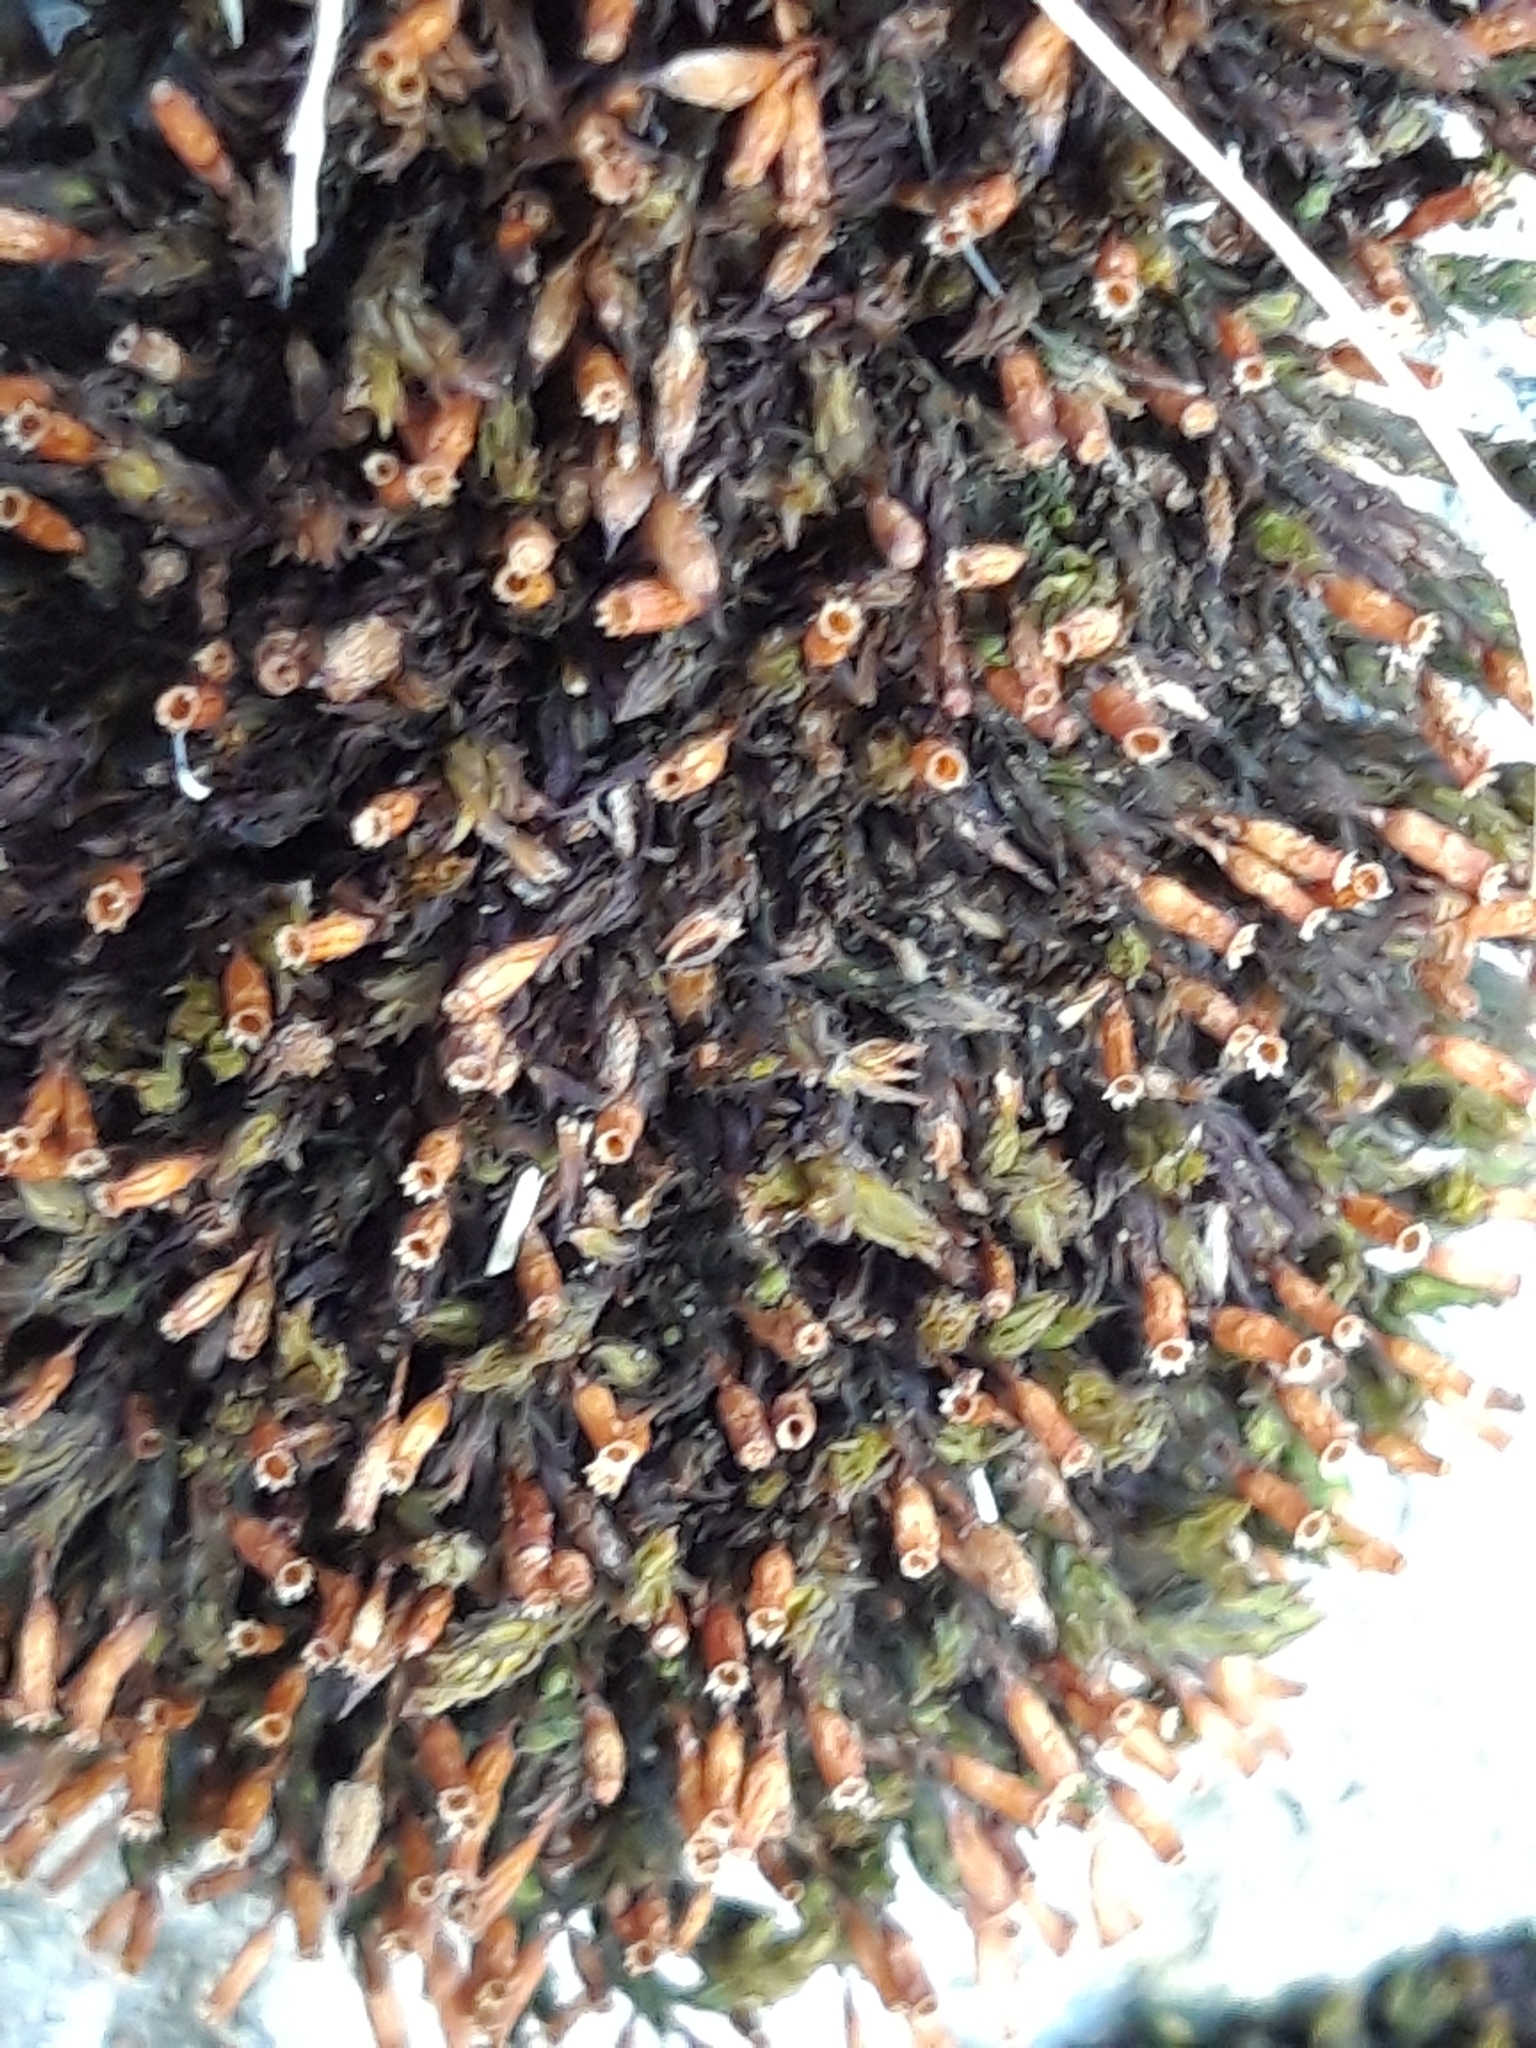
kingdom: Plantae
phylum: Bryophyta
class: Bryopsida
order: Orthotrichales
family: Orthotrichaceae
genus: Orthotrichum
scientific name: Orthotrichum anomalum
